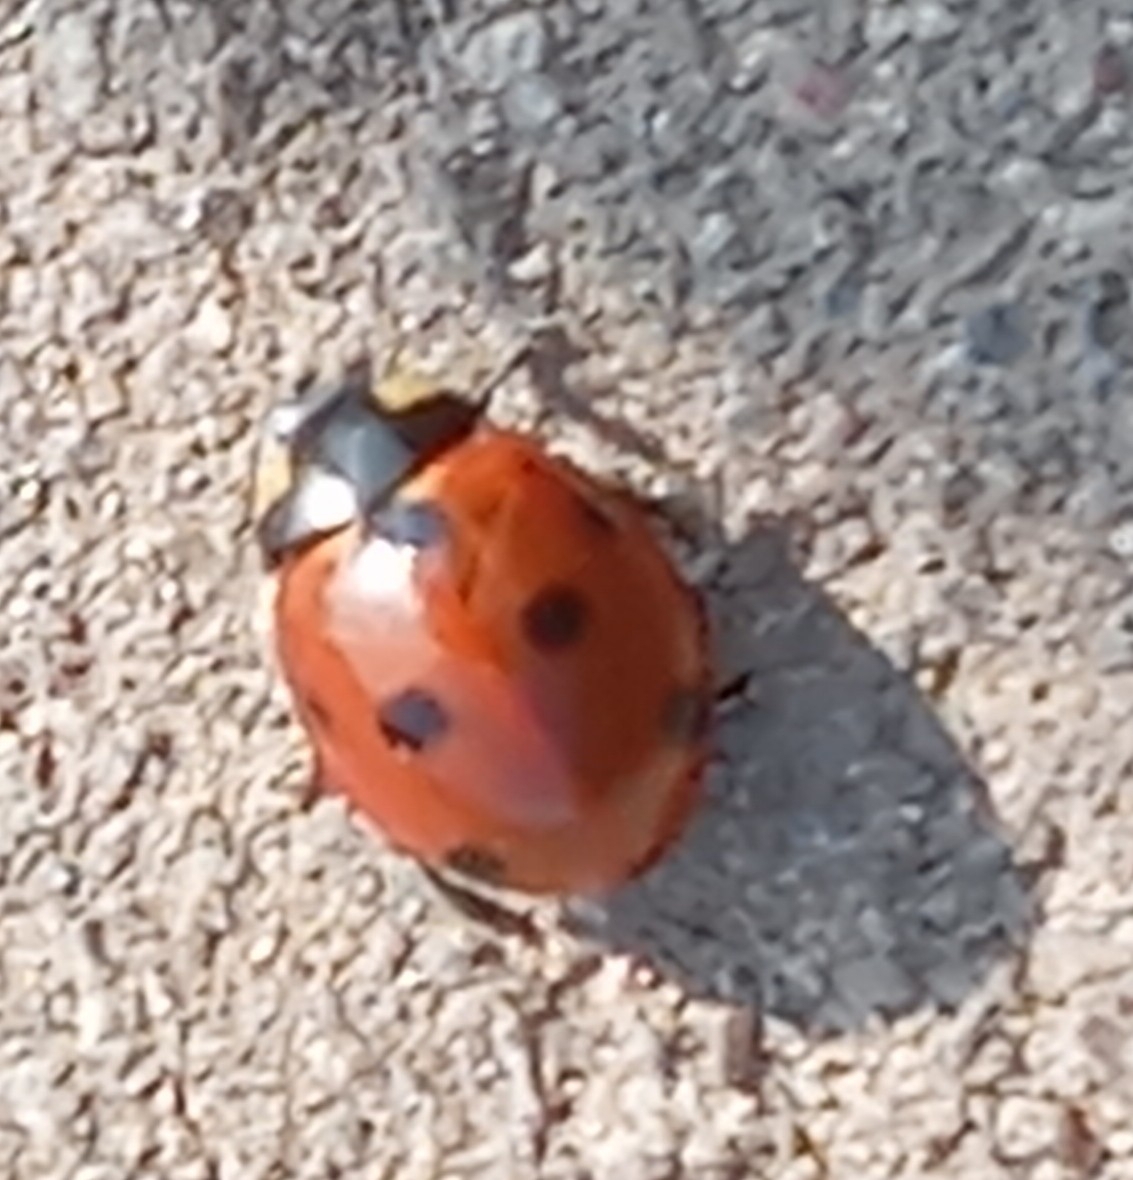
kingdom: Animalia
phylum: Arthropoda
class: Insecta
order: Coleoptera
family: Coccinellidae
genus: Coccinella
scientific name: Coccinella septempunctata
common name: Sevenspotted lady beetle
